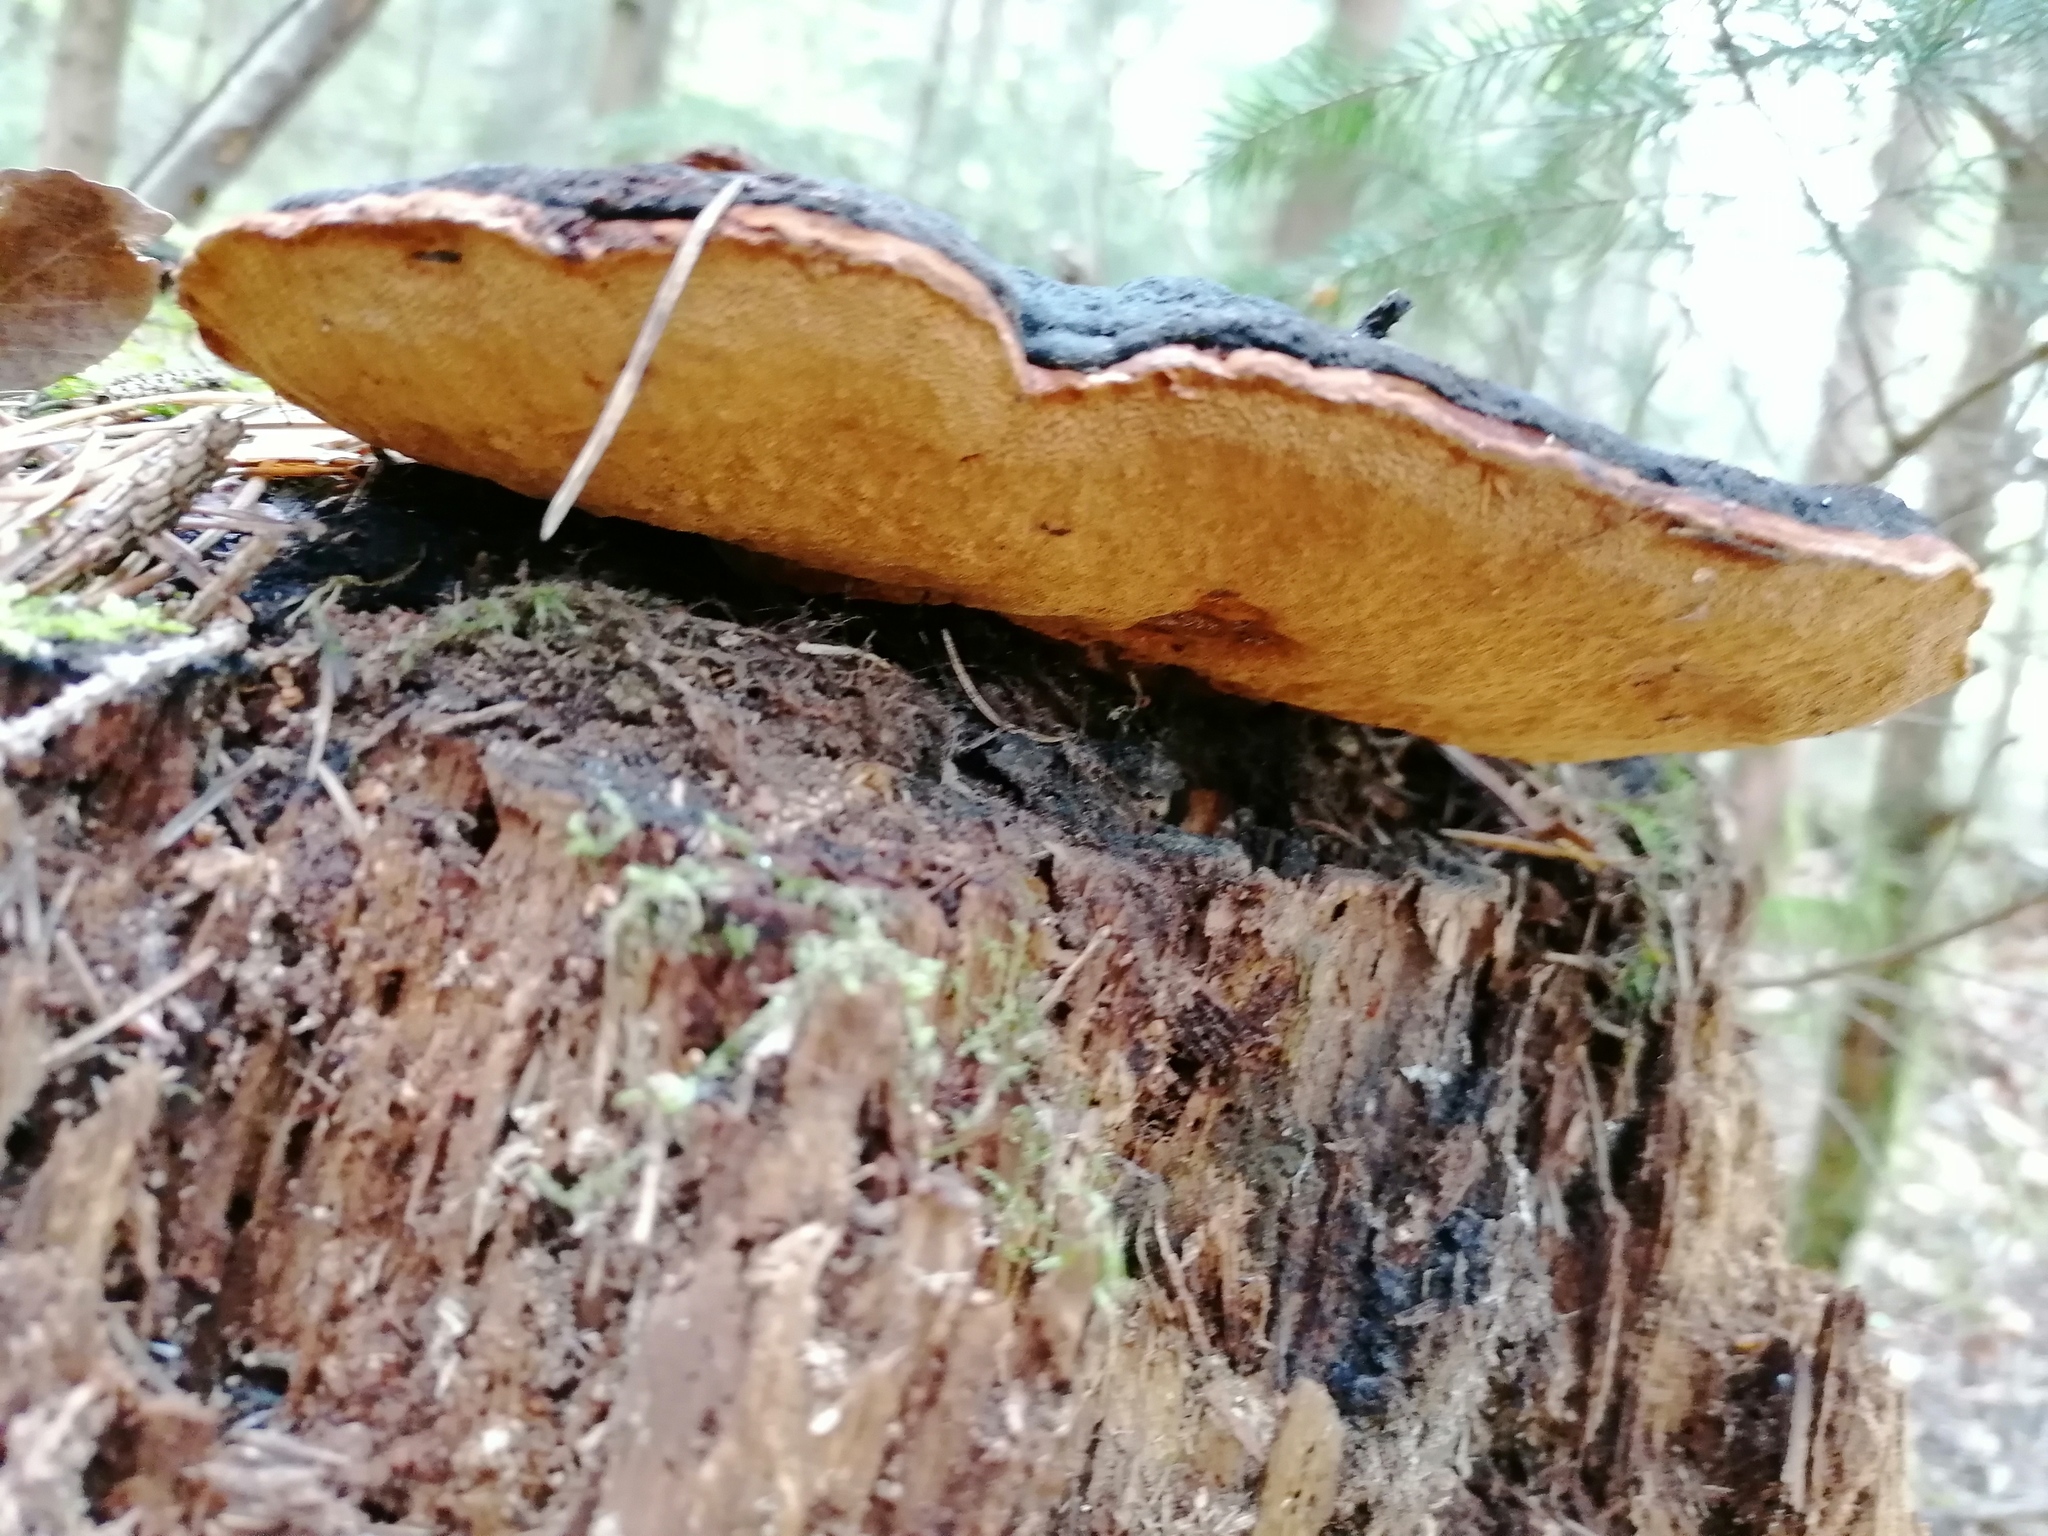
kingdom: Fungi
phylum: Basidiomycota
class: Agaricomycetes
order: Gloeophyllales
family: Gloeophyllaceae
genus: Gloeophyllum
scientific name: Gloeophyllum odoratum
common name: Anise mazegill
